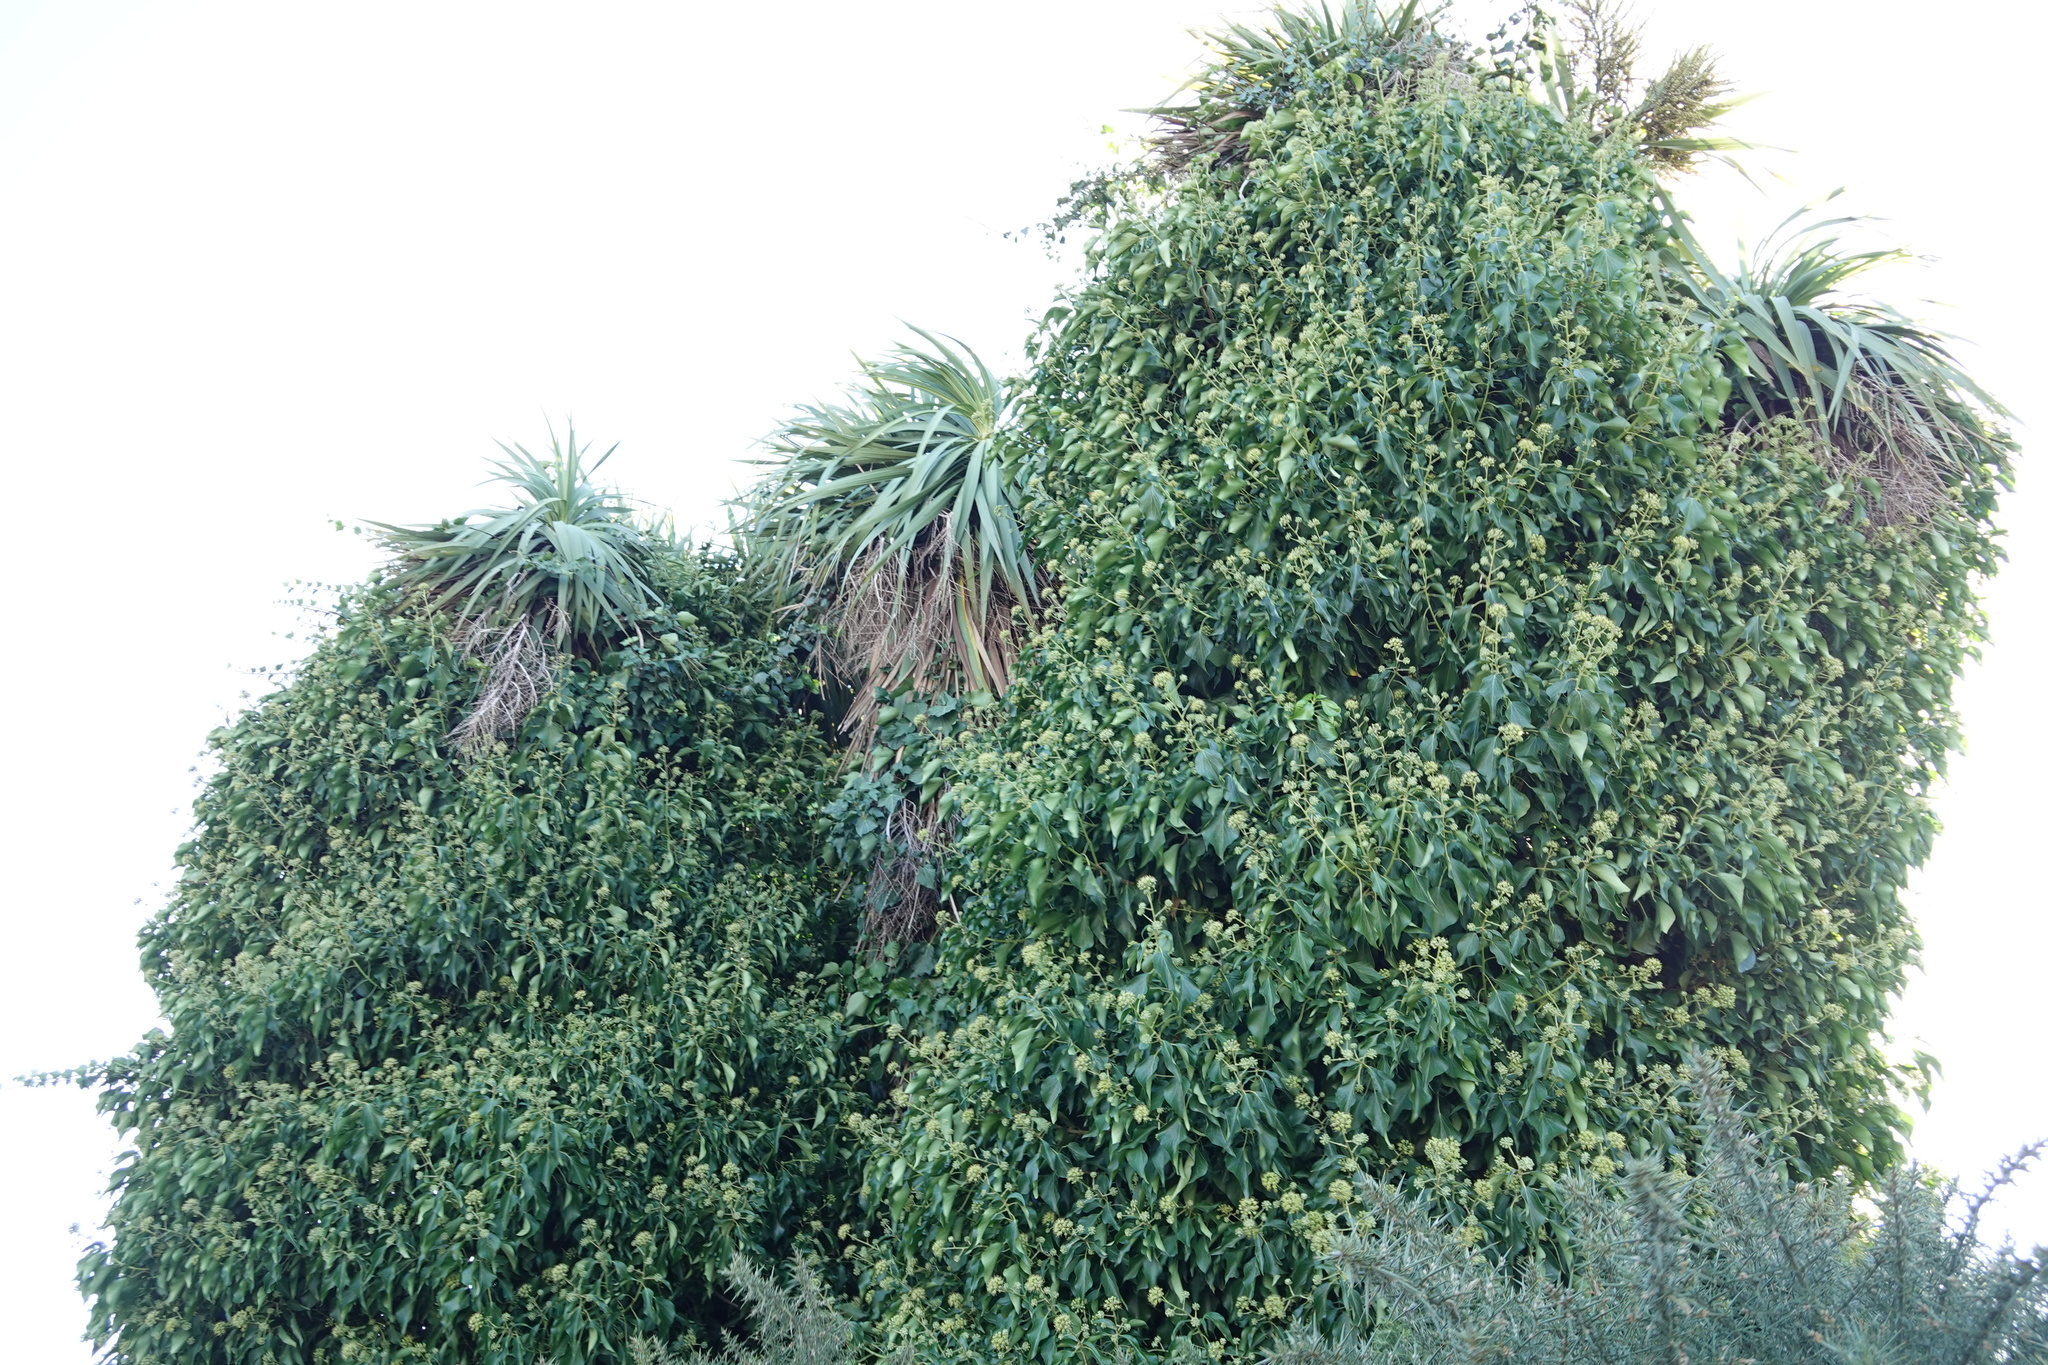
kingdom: Plantae
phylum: Tracheophyta
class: Magnoliopsida
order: Apiales
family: Araliaceae
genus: Hedera
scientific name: Hedera helix
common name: Ivy
